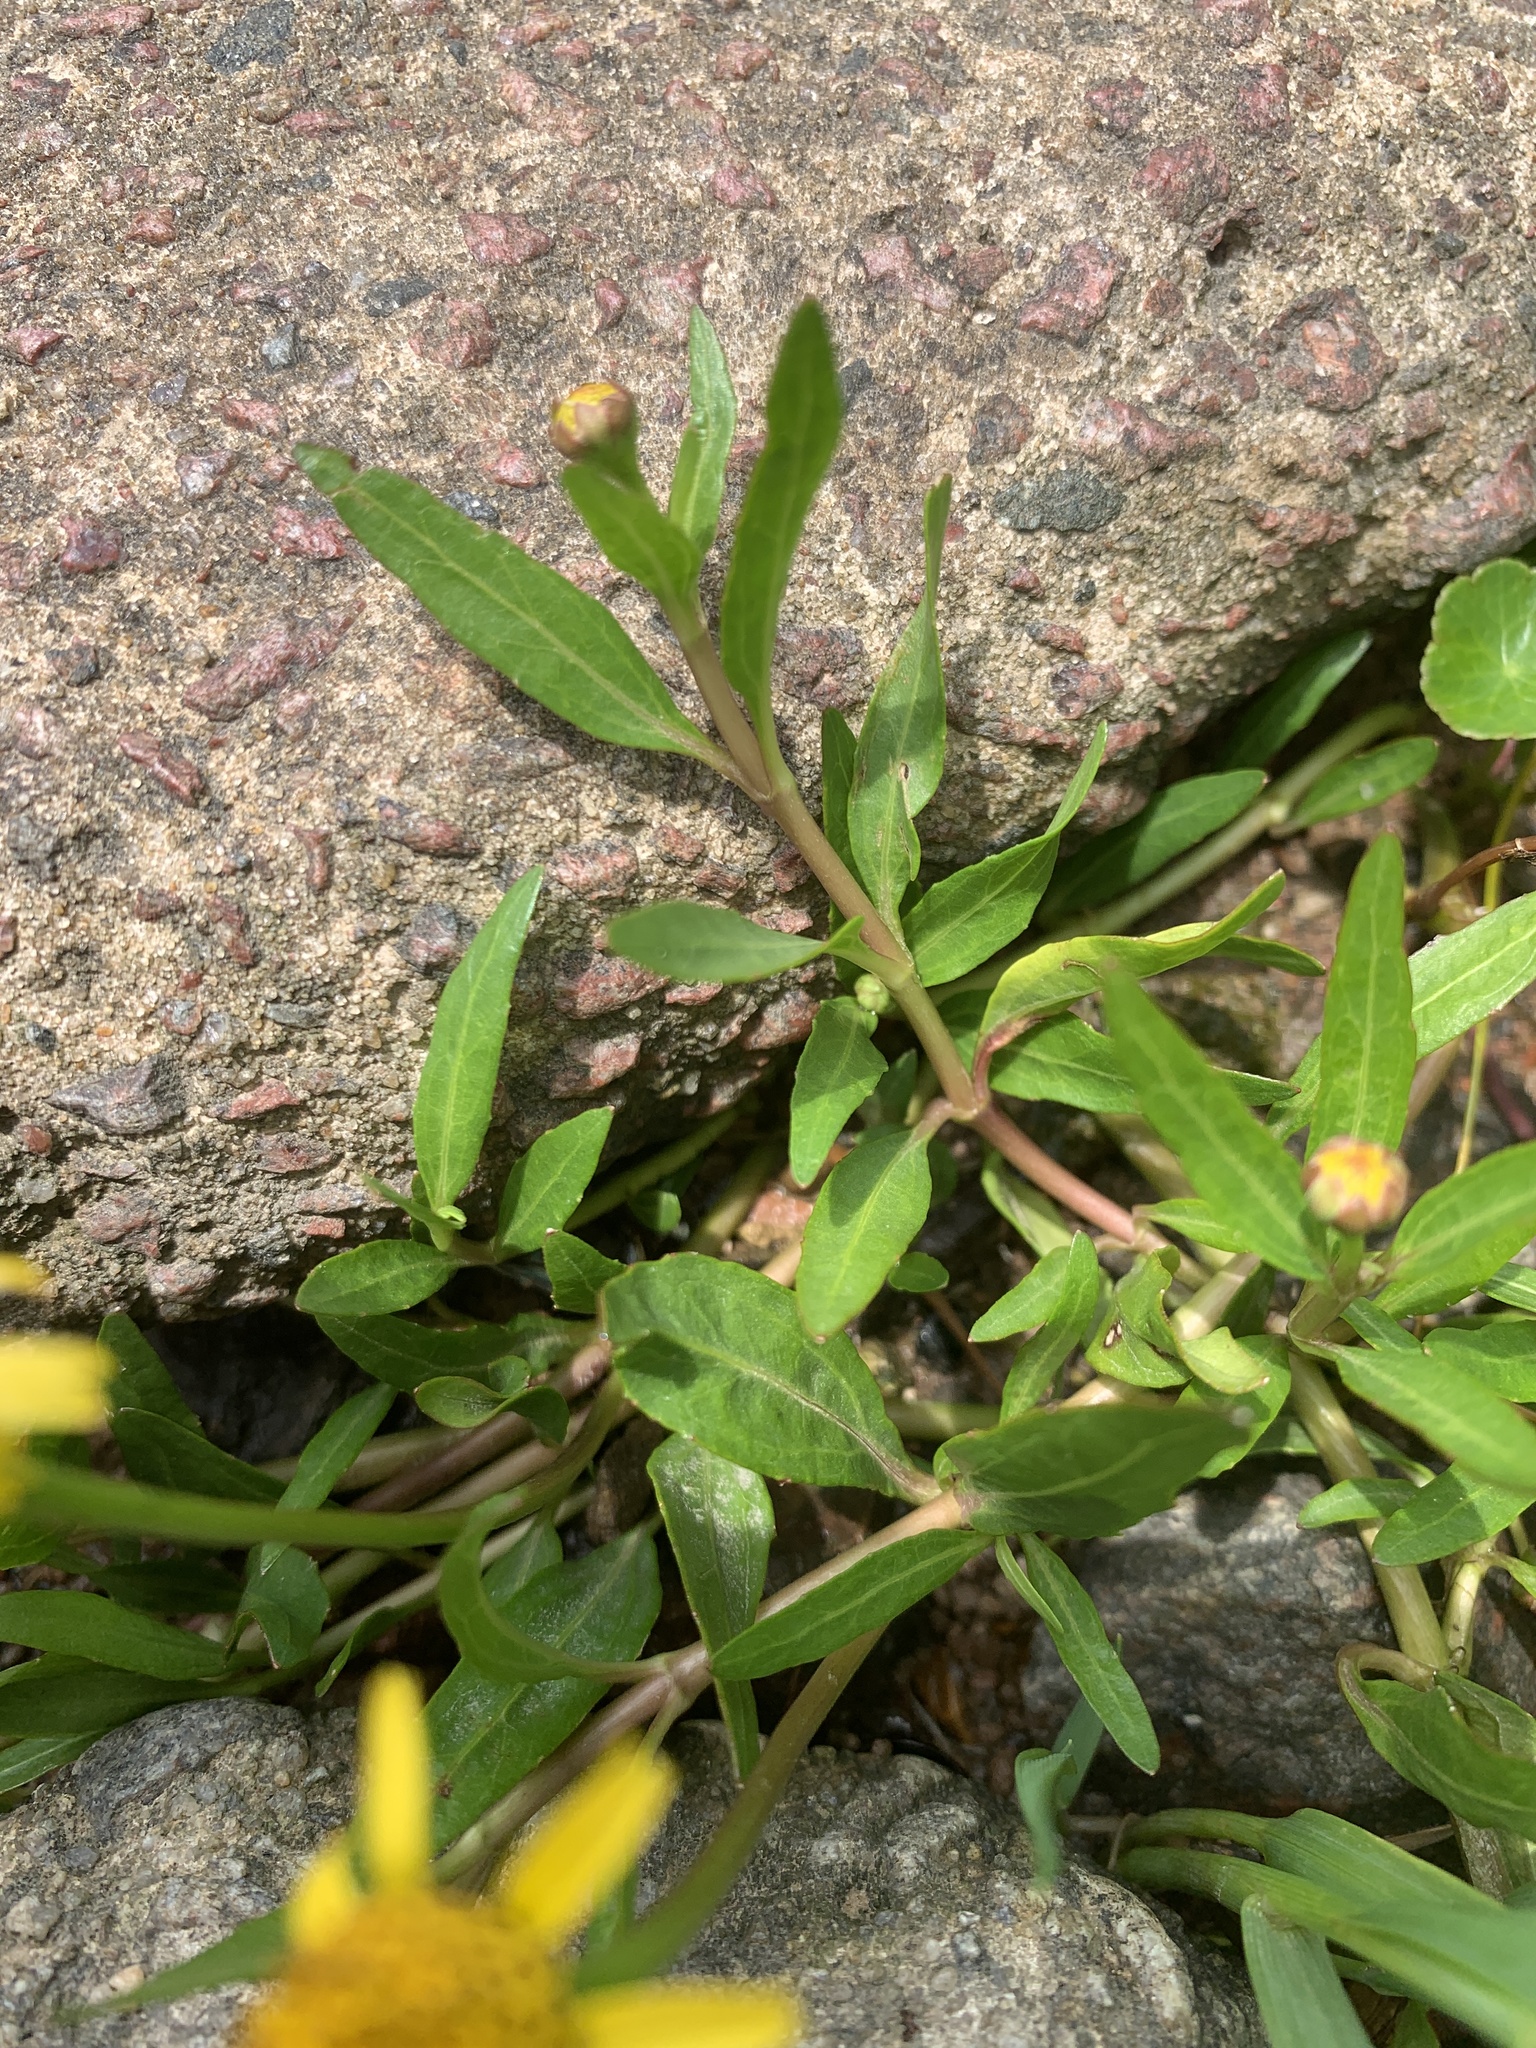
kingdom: Plantae
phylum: Tracheophyta
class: Magnoliopsida
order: Asterales
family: Asteraceae
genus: Acmella
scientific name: Acmella decumbens
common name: Creeping spotflower
